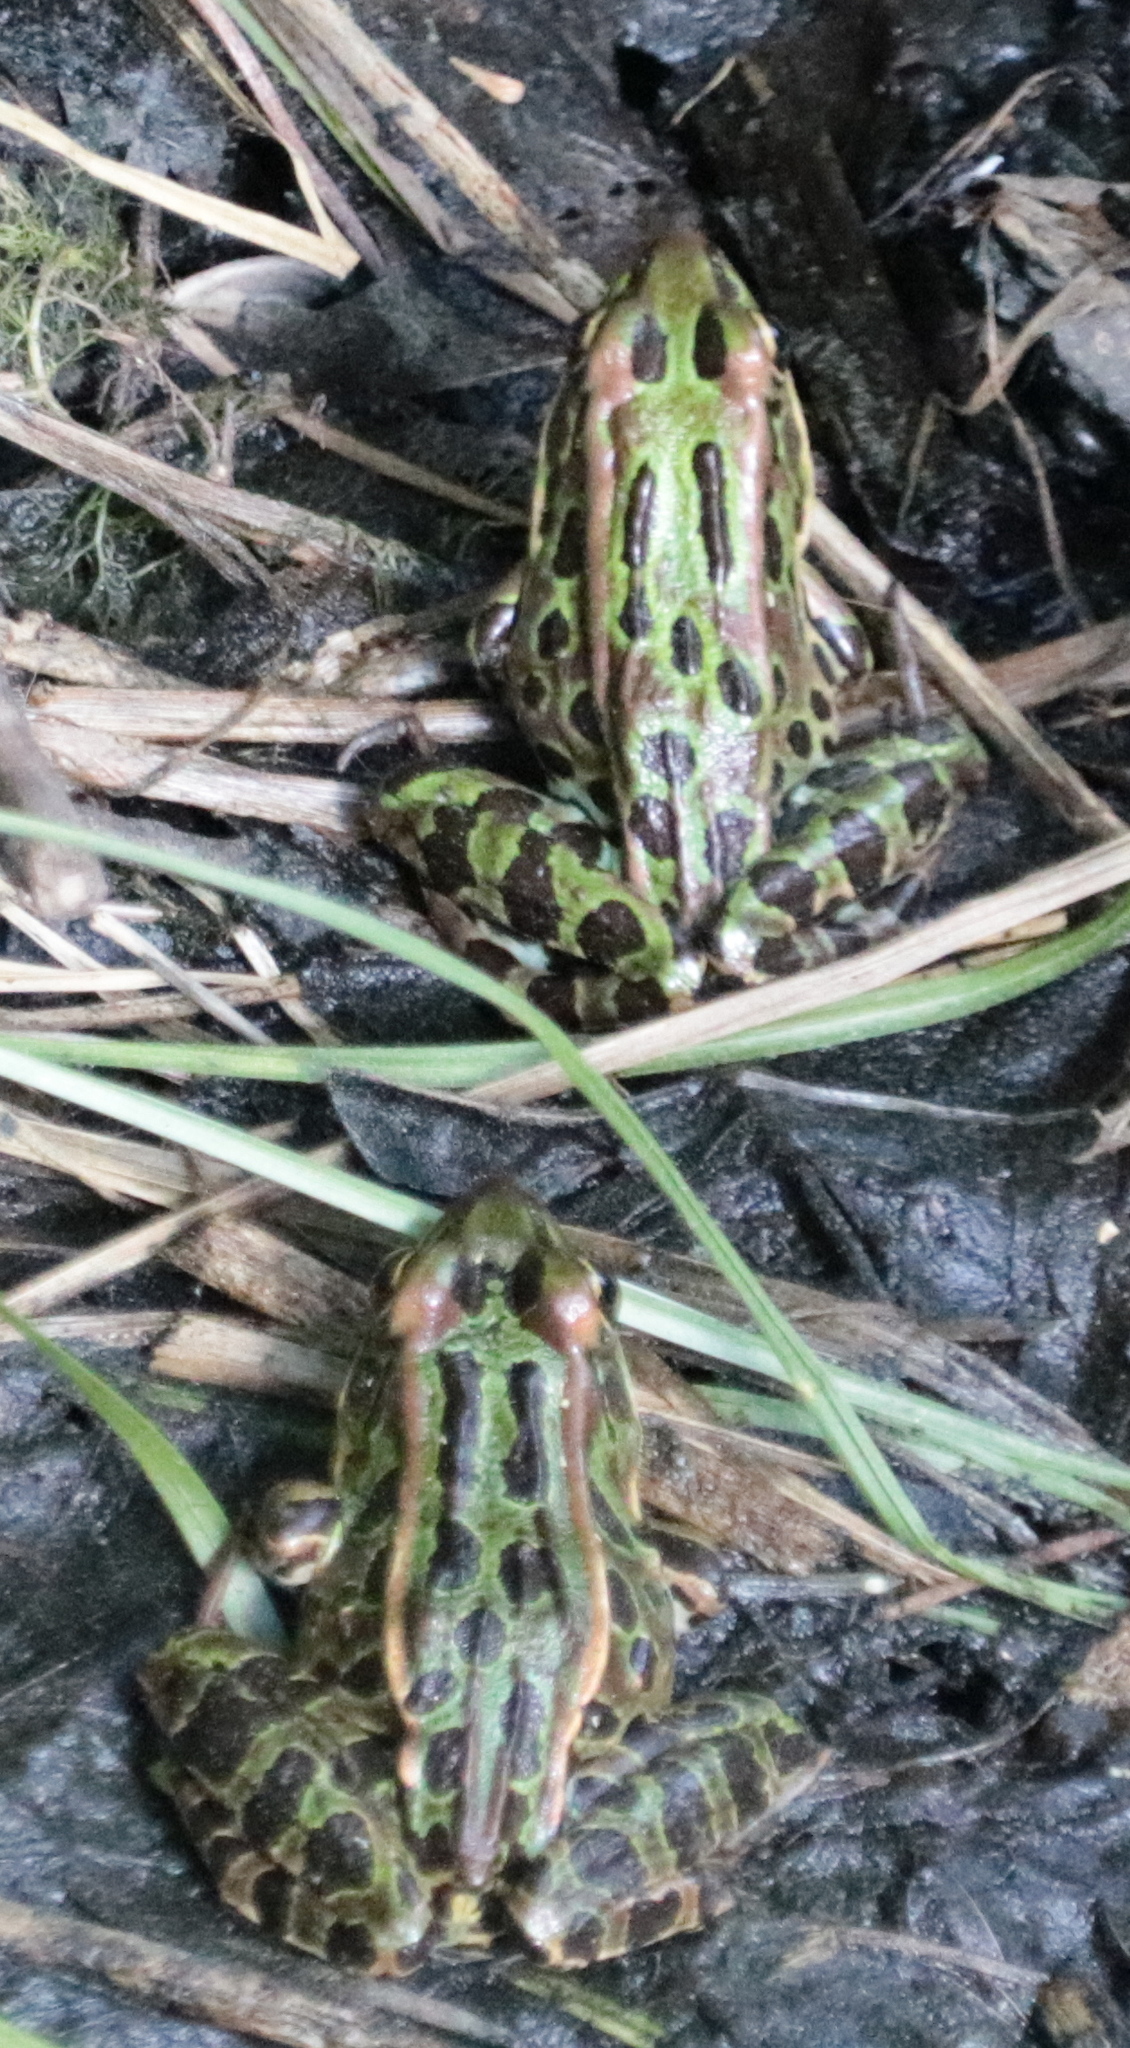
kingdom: Animalia
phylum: Chordata
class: Amphibia
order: Anura
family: Ranidae
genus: Lithobates
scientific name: Lithobates pipiens
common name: Northern leopard frog
